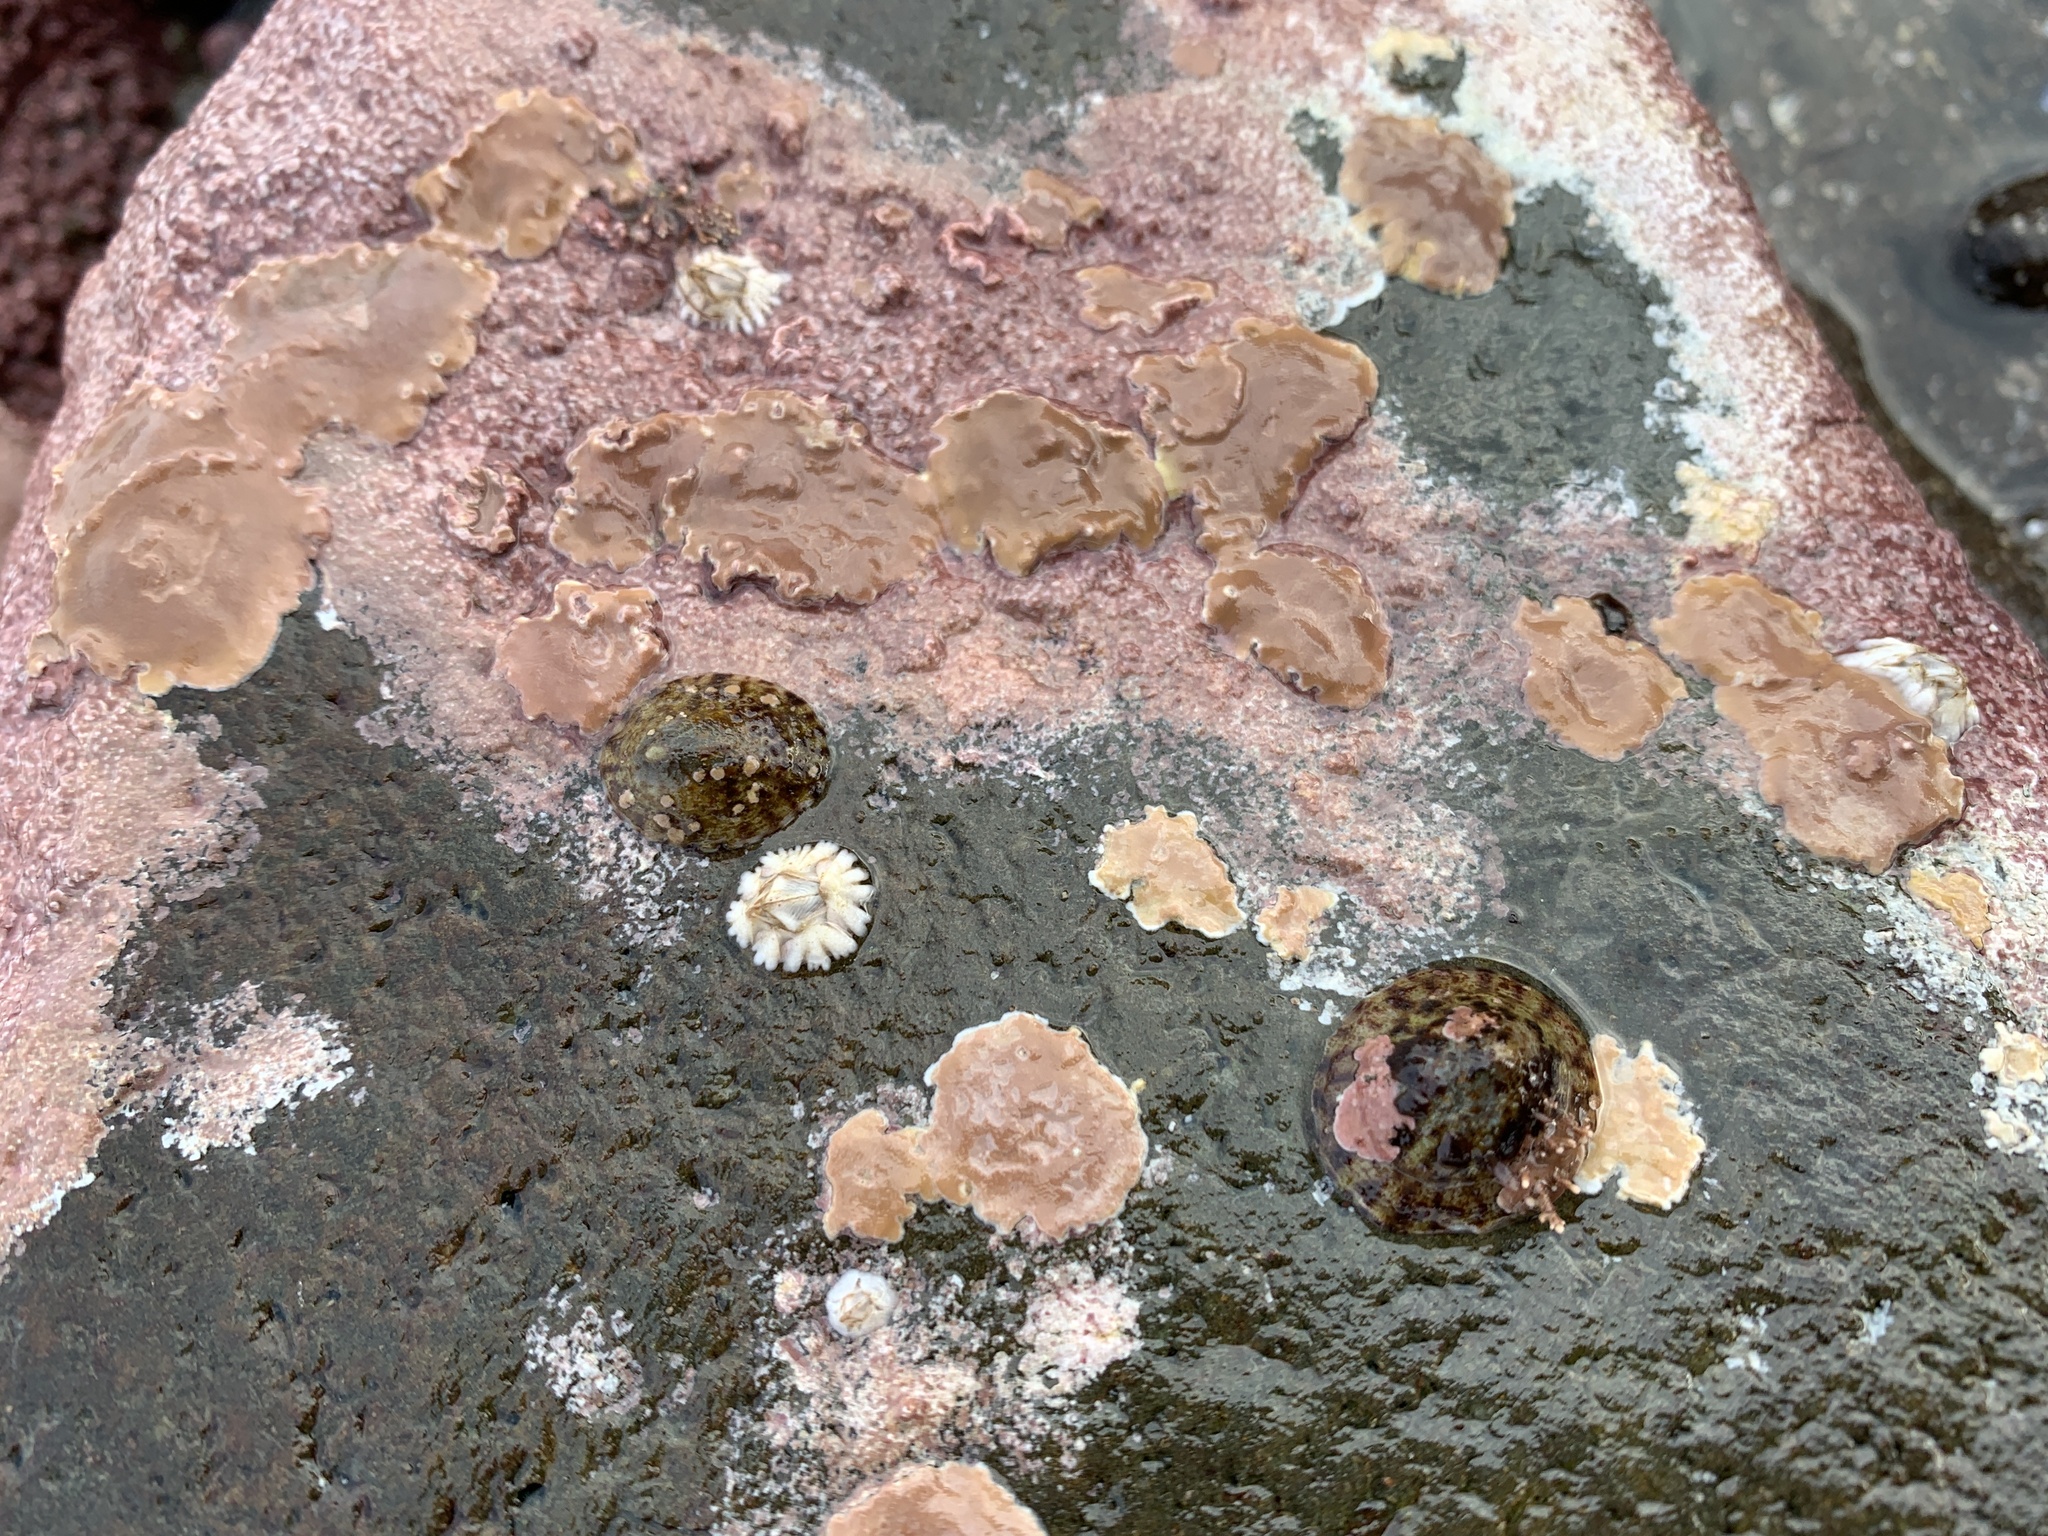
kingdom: Animalia
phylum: Mollusca
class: Gastropoda
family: Lottiidae
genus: Testudinalia
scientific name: Testudinalia testudinalis
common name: Common tortoiseshell limpet
